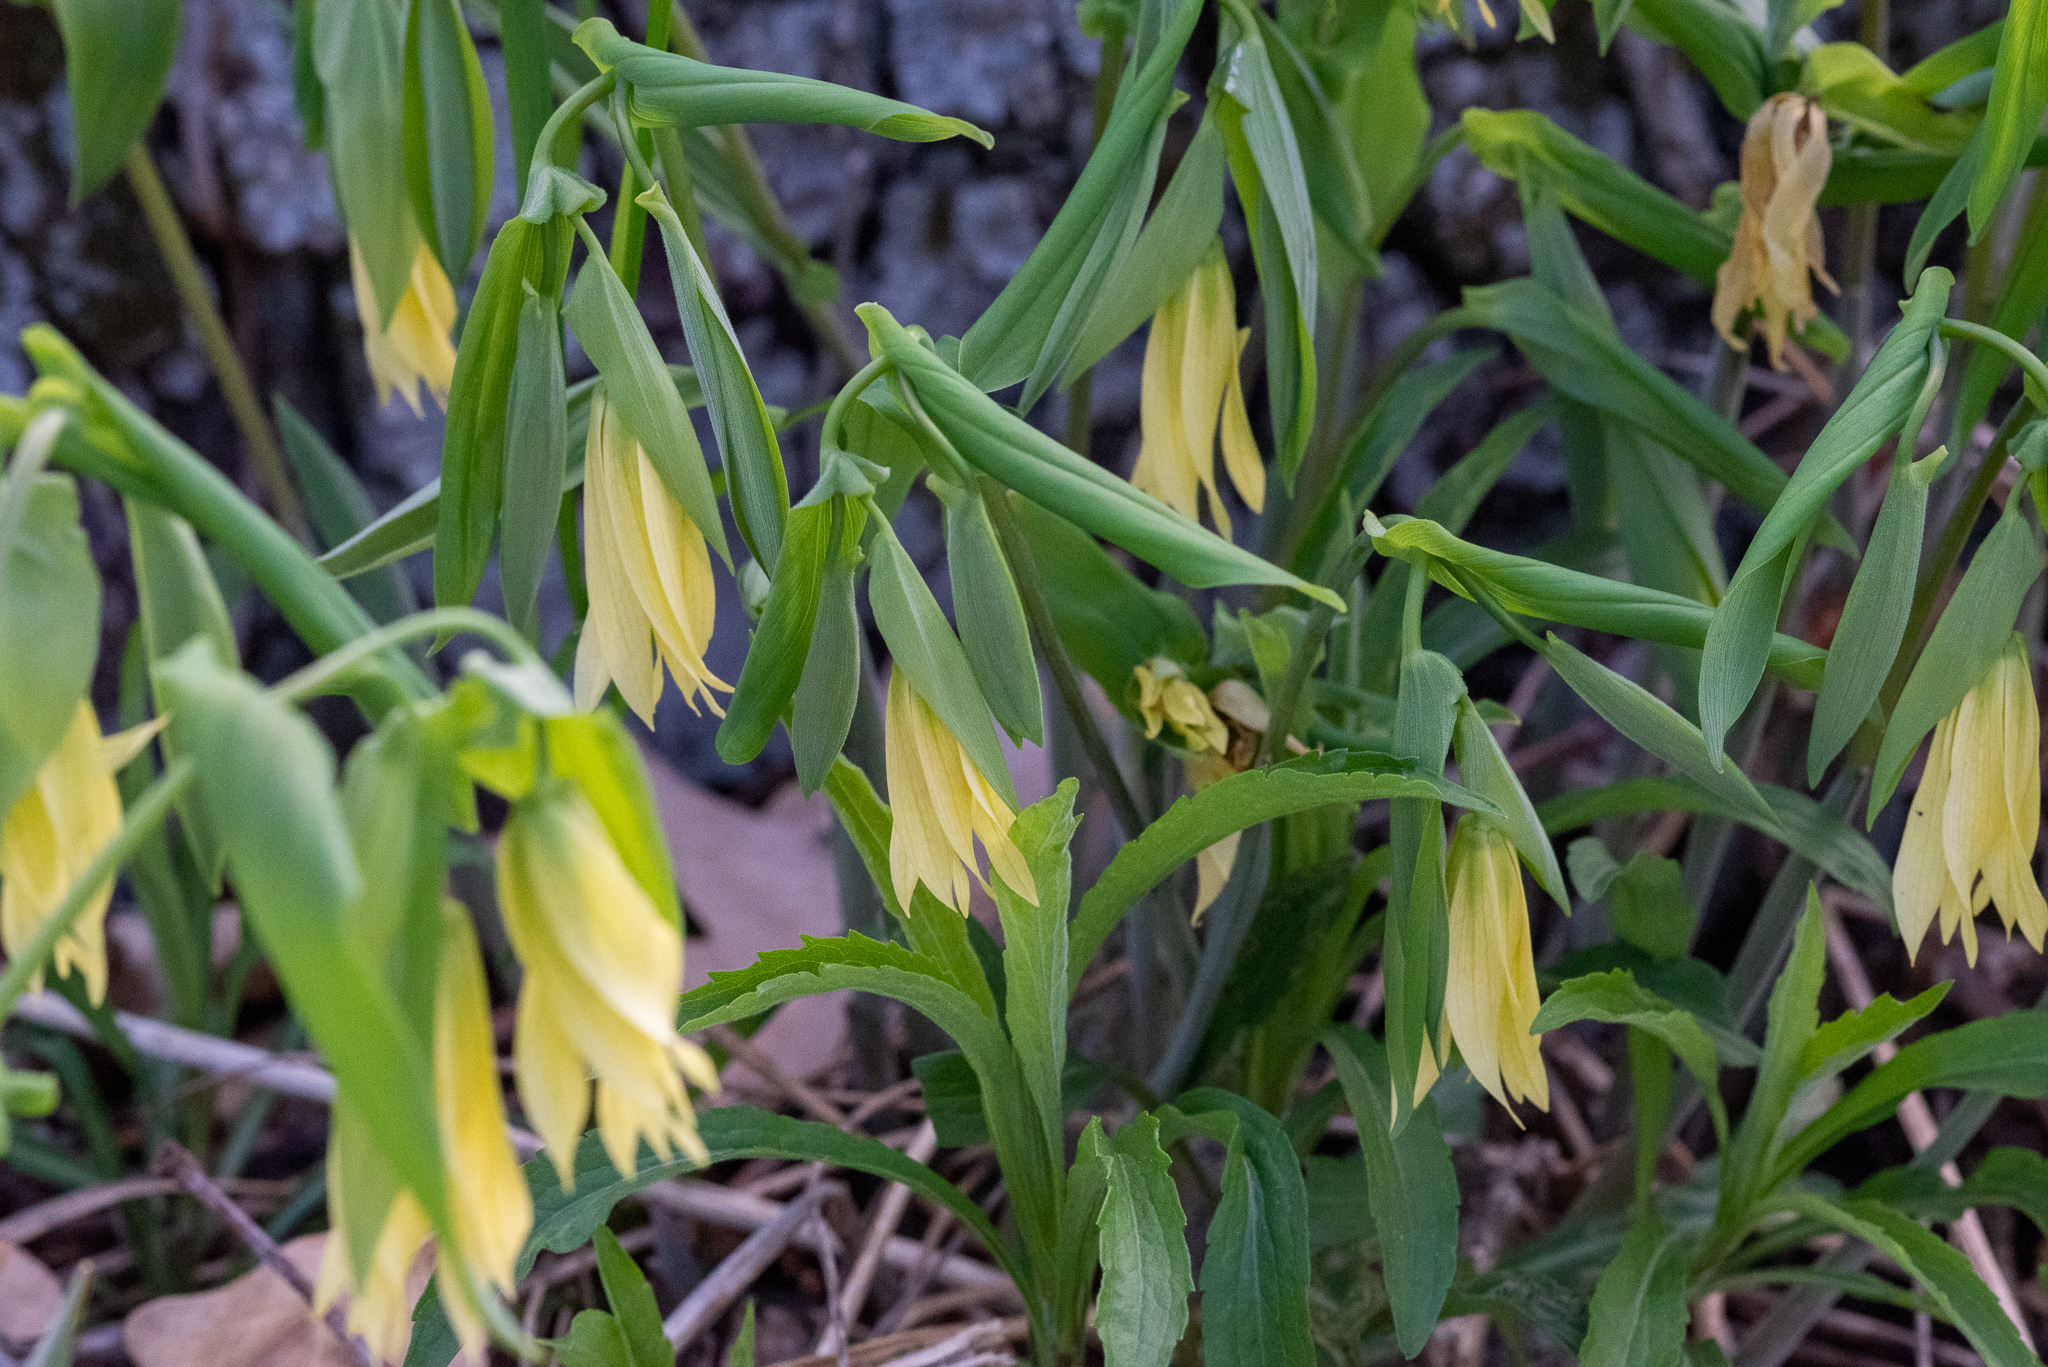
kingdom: Plantae
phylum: Tracheophyta
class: Liliopsida
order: Liliales
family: Colchicaceae
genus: Uvularia
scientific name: Uvularia grandiflora
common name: Bellwort
